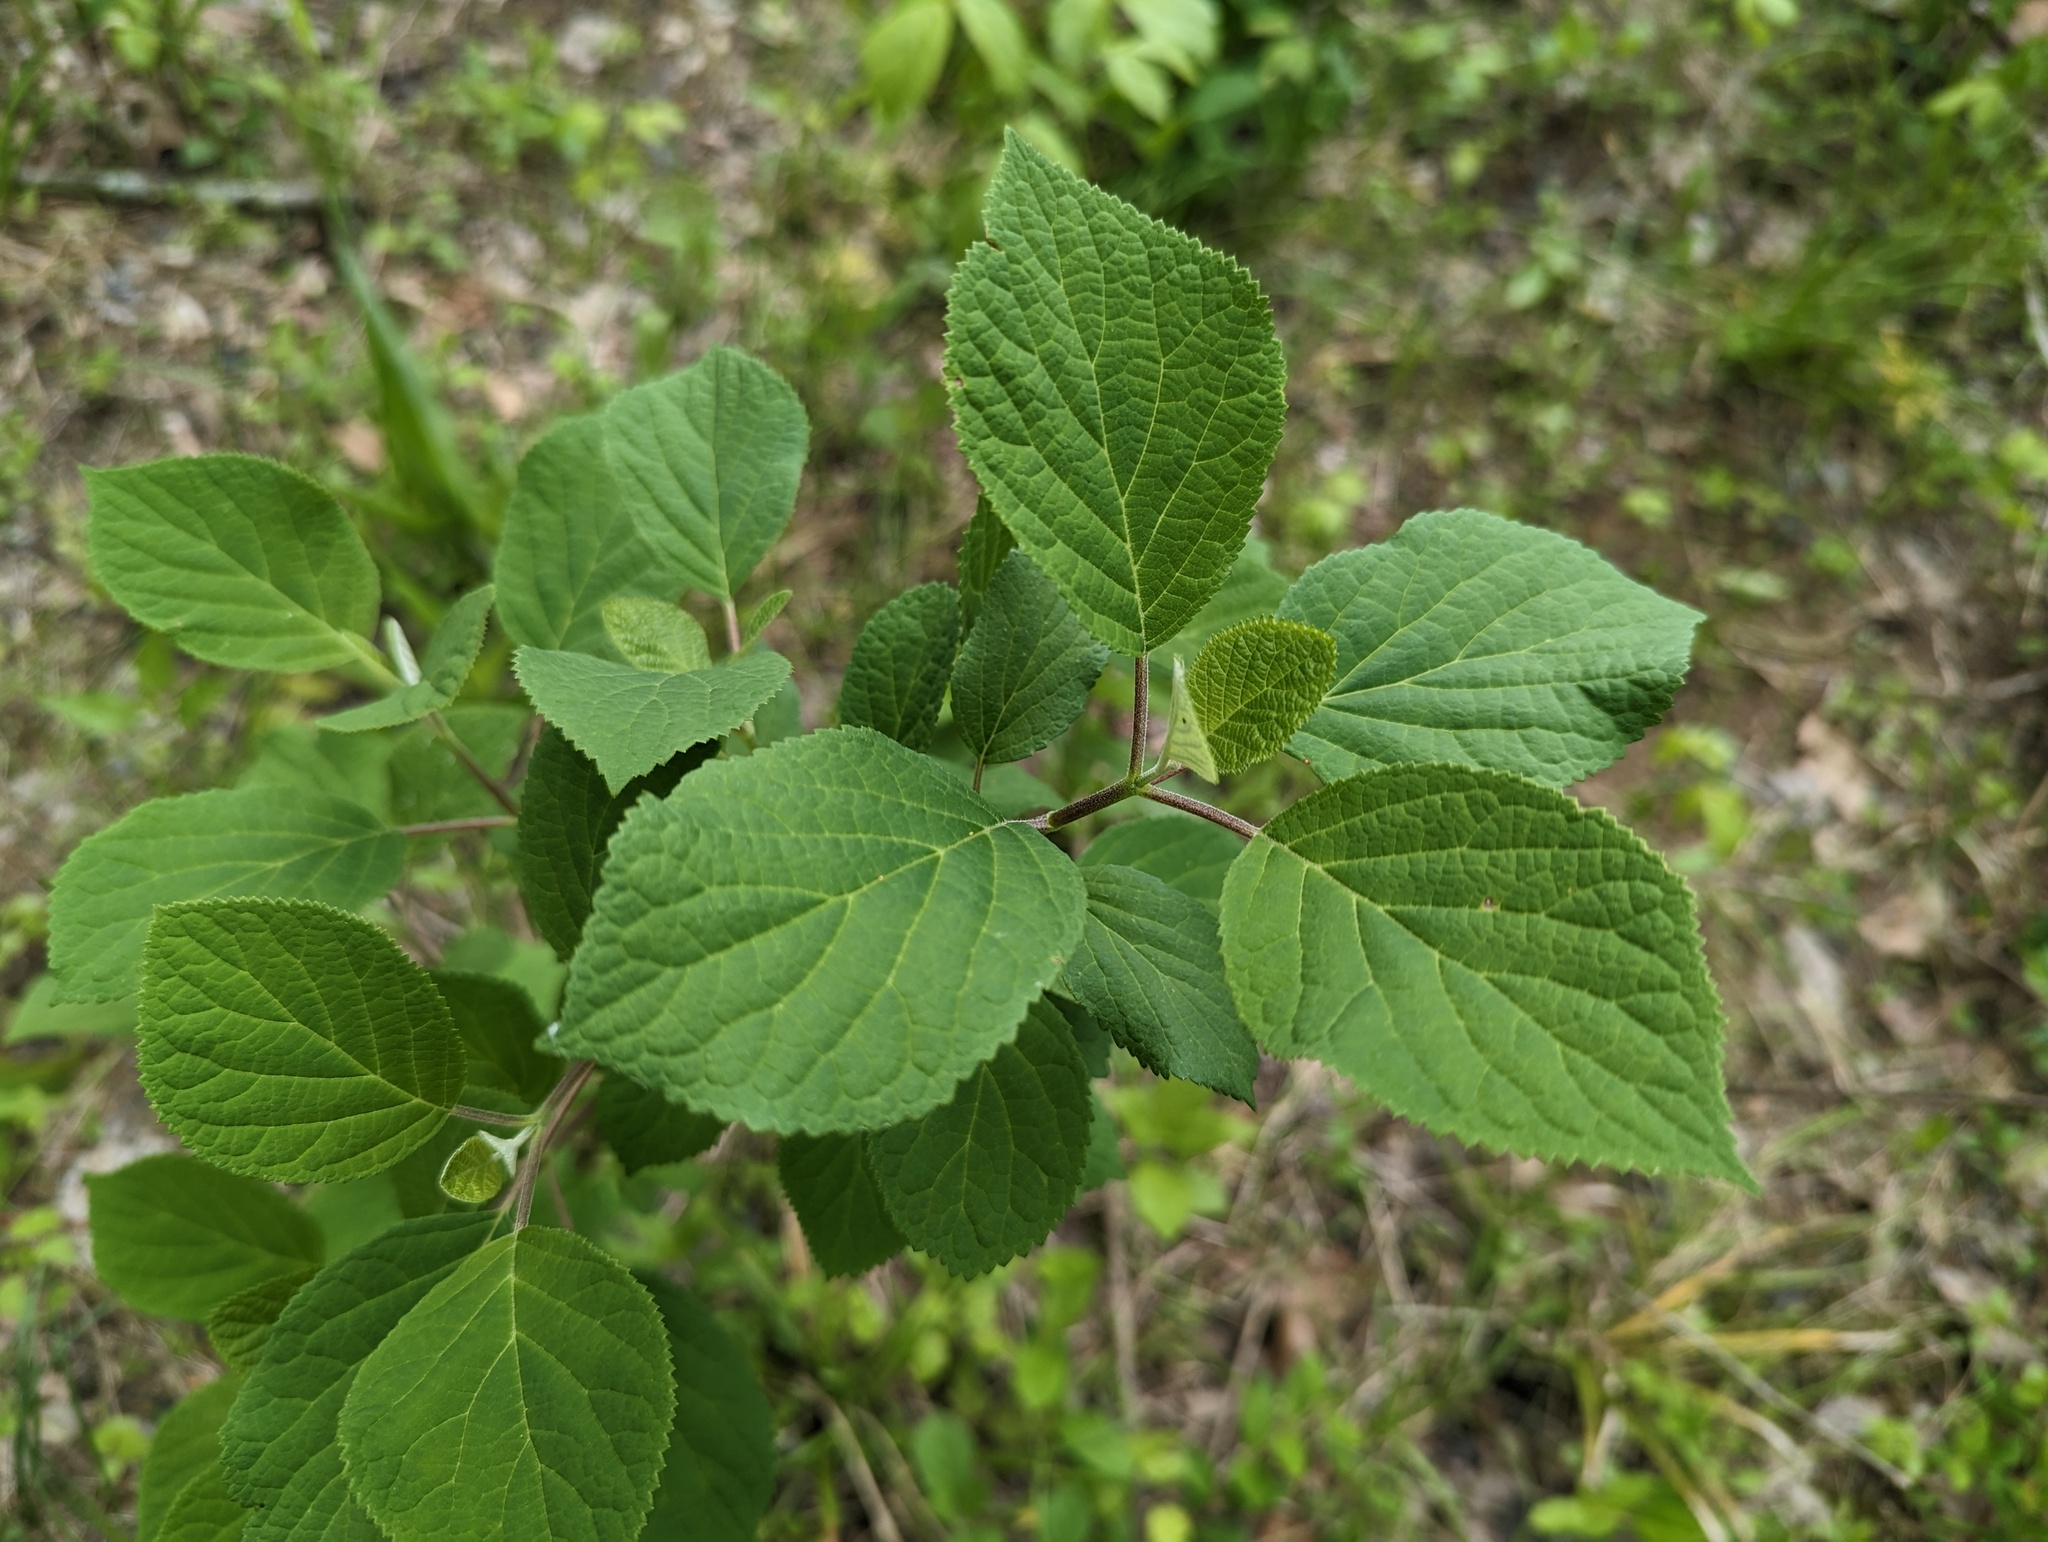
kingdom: Plantae
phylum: Tracheophyta
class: Magnoliopsida
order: Cornales
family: Hydrangeaceae
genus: Hydrangea
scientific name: Hydrangea arborescens
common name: Sevenbark
